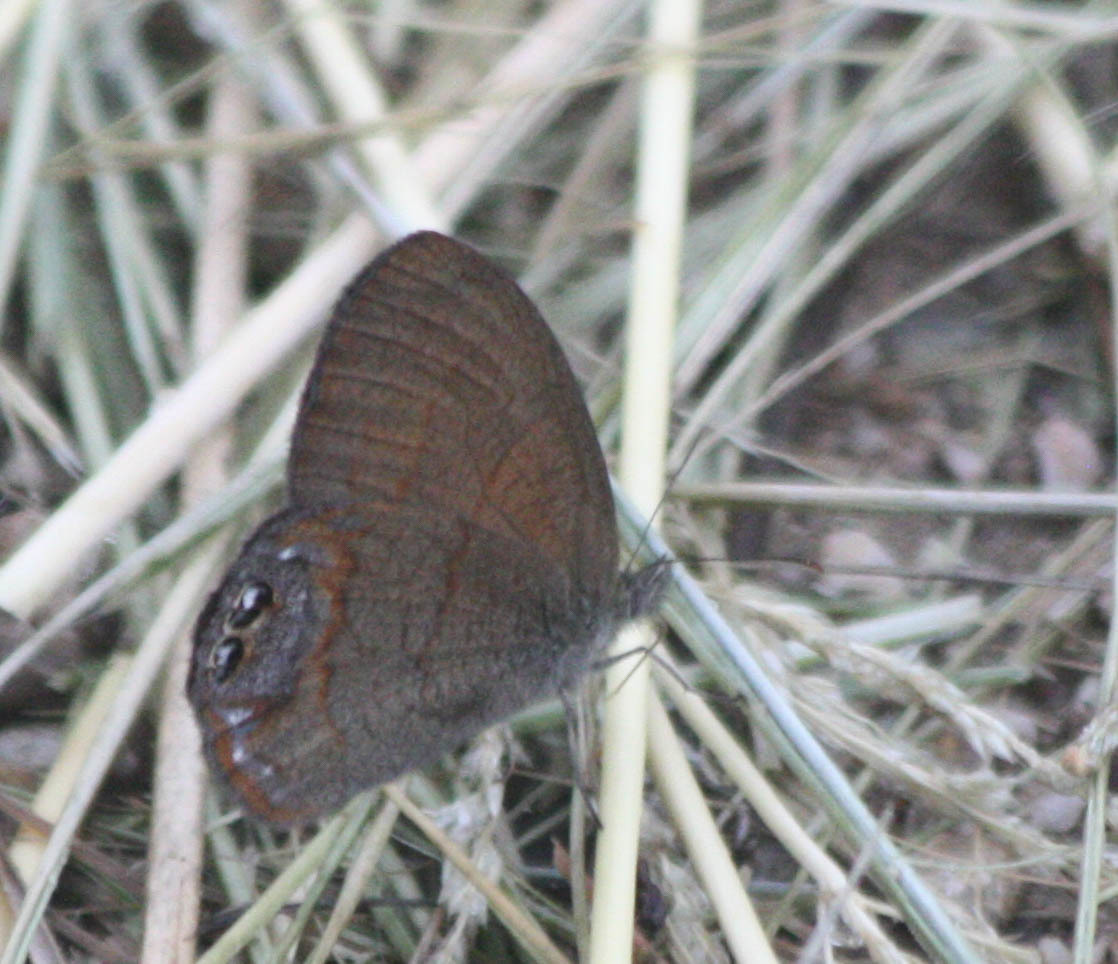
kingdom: Animalia
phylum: Arthropoda
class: Insecta
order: Lepidoptera
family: Nymphalidae
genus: Euptychia
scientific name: Euptychia pyracmon
